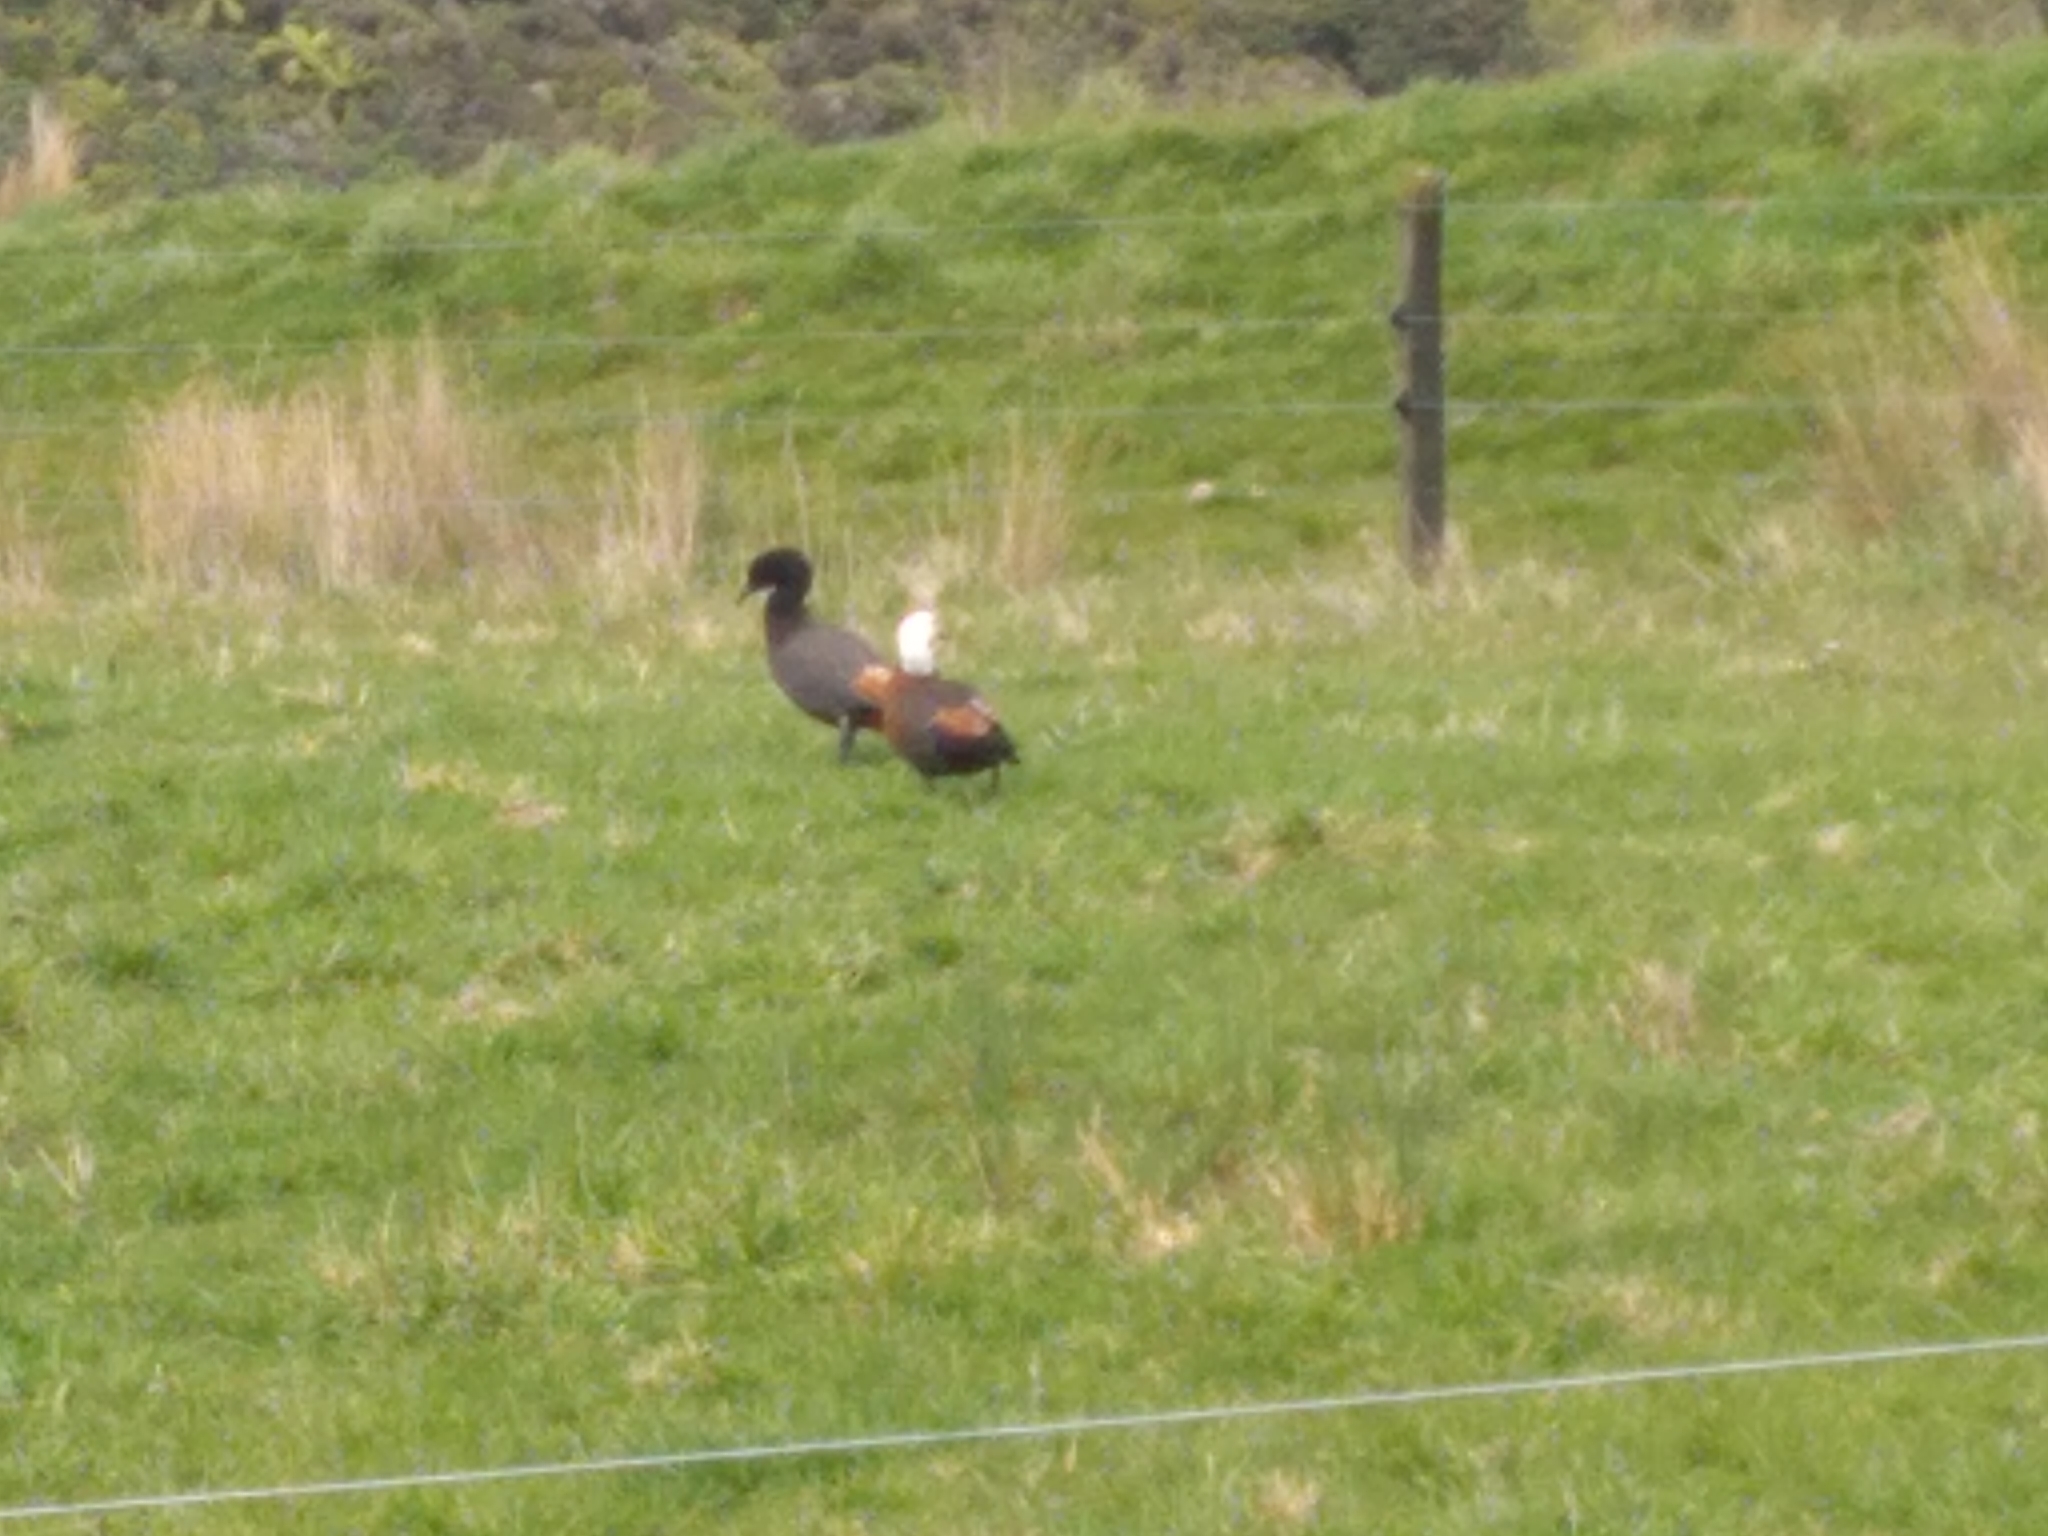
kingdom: Animalia
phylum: Chordata
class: Aves
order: Anseriformes
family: Anatidae
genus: Tadorna
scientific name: Tadorna variegata
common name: Paradise shelduck
